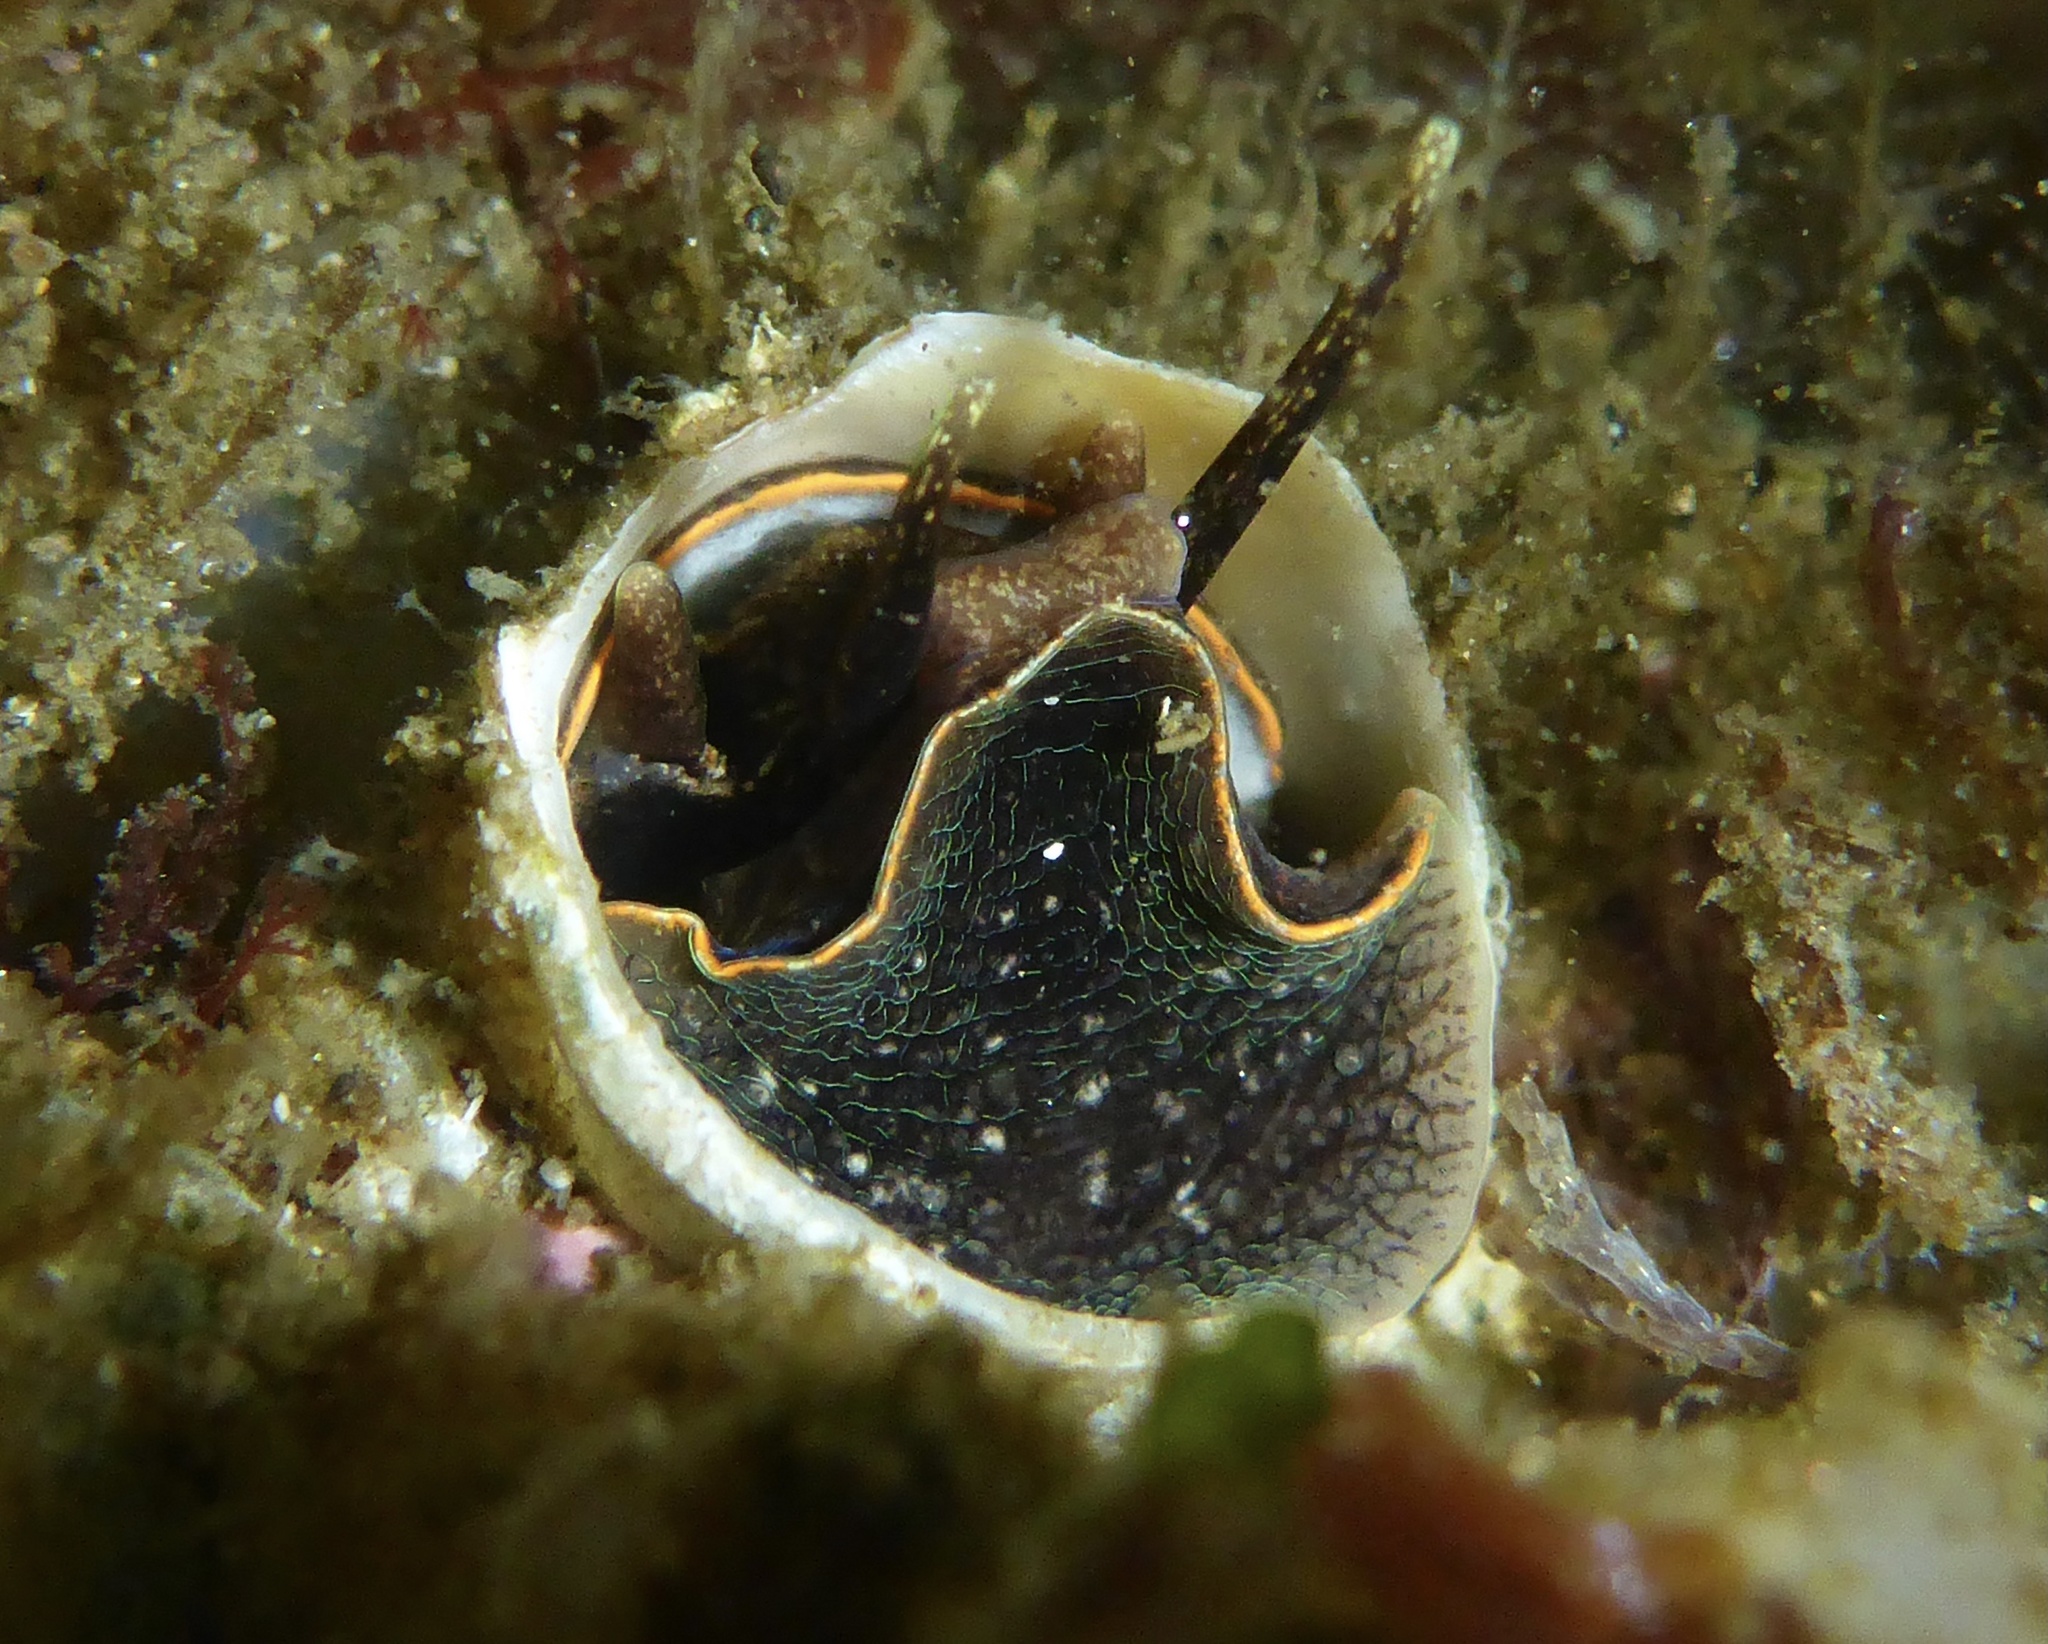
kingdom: Animalia
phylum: Mollusca
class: Gastropoda
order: Littorinimorpha
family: Vermetidae
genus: Thylacodes
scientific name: Thylacodes squamigerus
